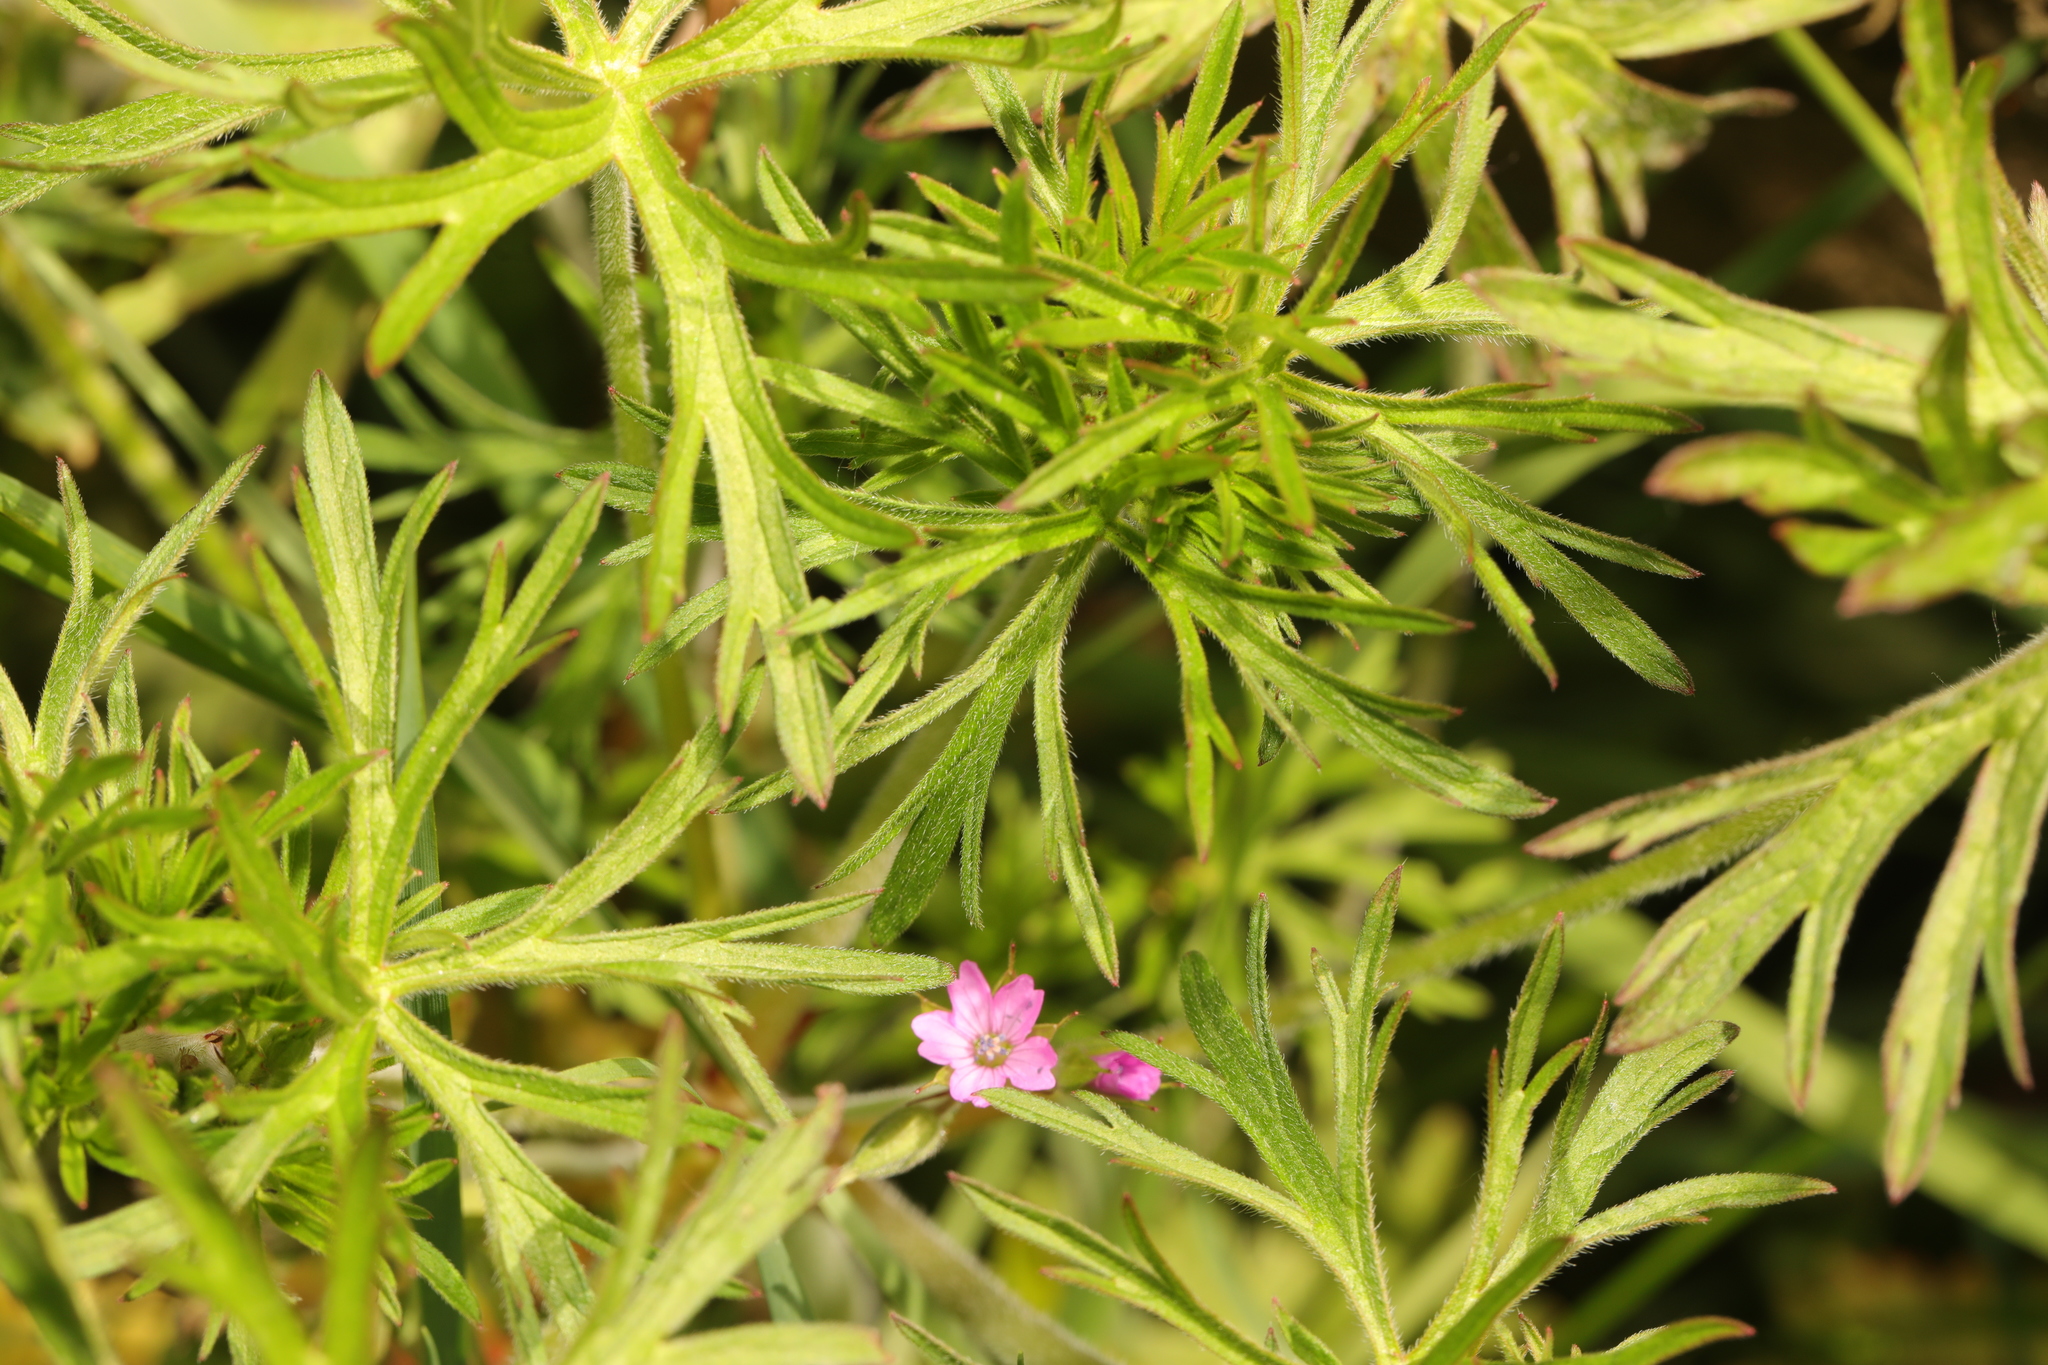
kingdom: Plantae
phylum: Tracheophyta
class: Magnoliopsida
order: Geraniales
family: Geraniaceae
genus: Geranium
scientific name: Geranium dissectum
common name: Cut-leaved crane's-bill
